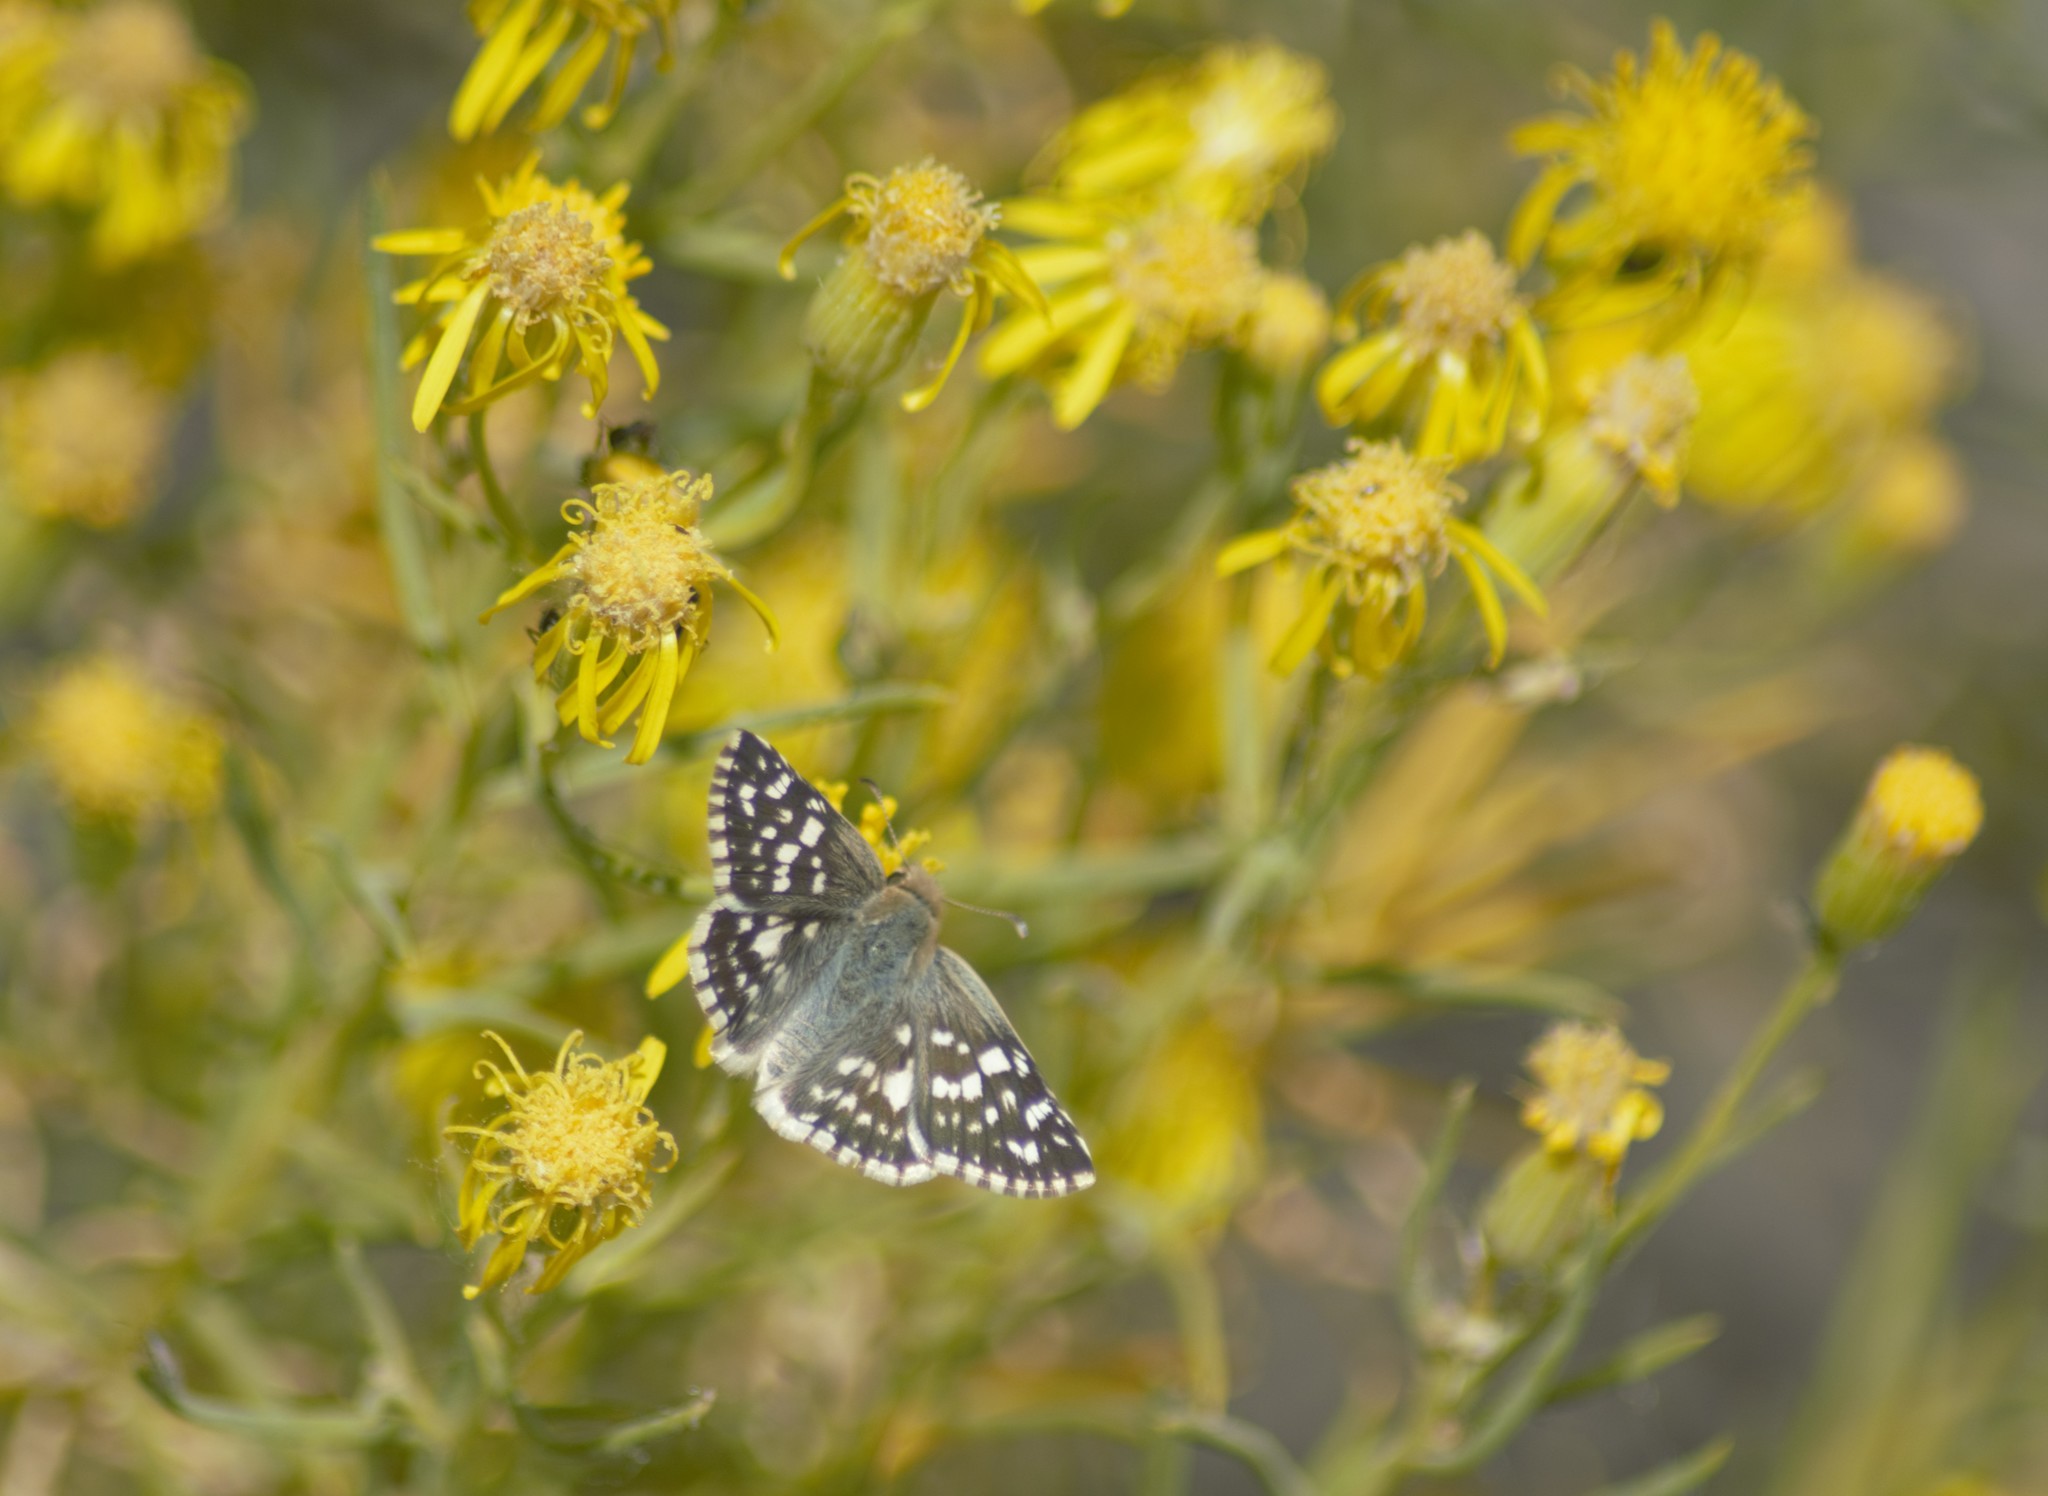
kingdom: Animalia
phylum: Arthropoda
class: Insecta
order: Lepidoptera
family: Hesperiidae
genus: Heliopetes
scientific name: Heliopetes americanus
